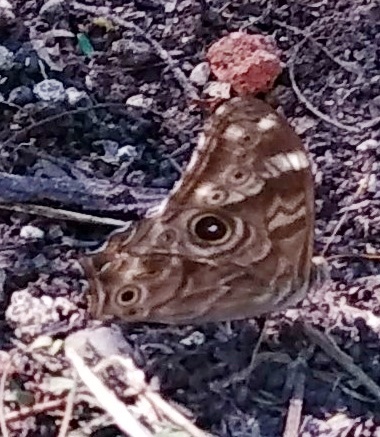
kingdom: Animalia
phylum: Arthropoda
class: Insecta
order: Lepidoptera
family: Nymphalidae
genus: Lethe
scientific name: Lethe rohria
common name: Common treebrown
